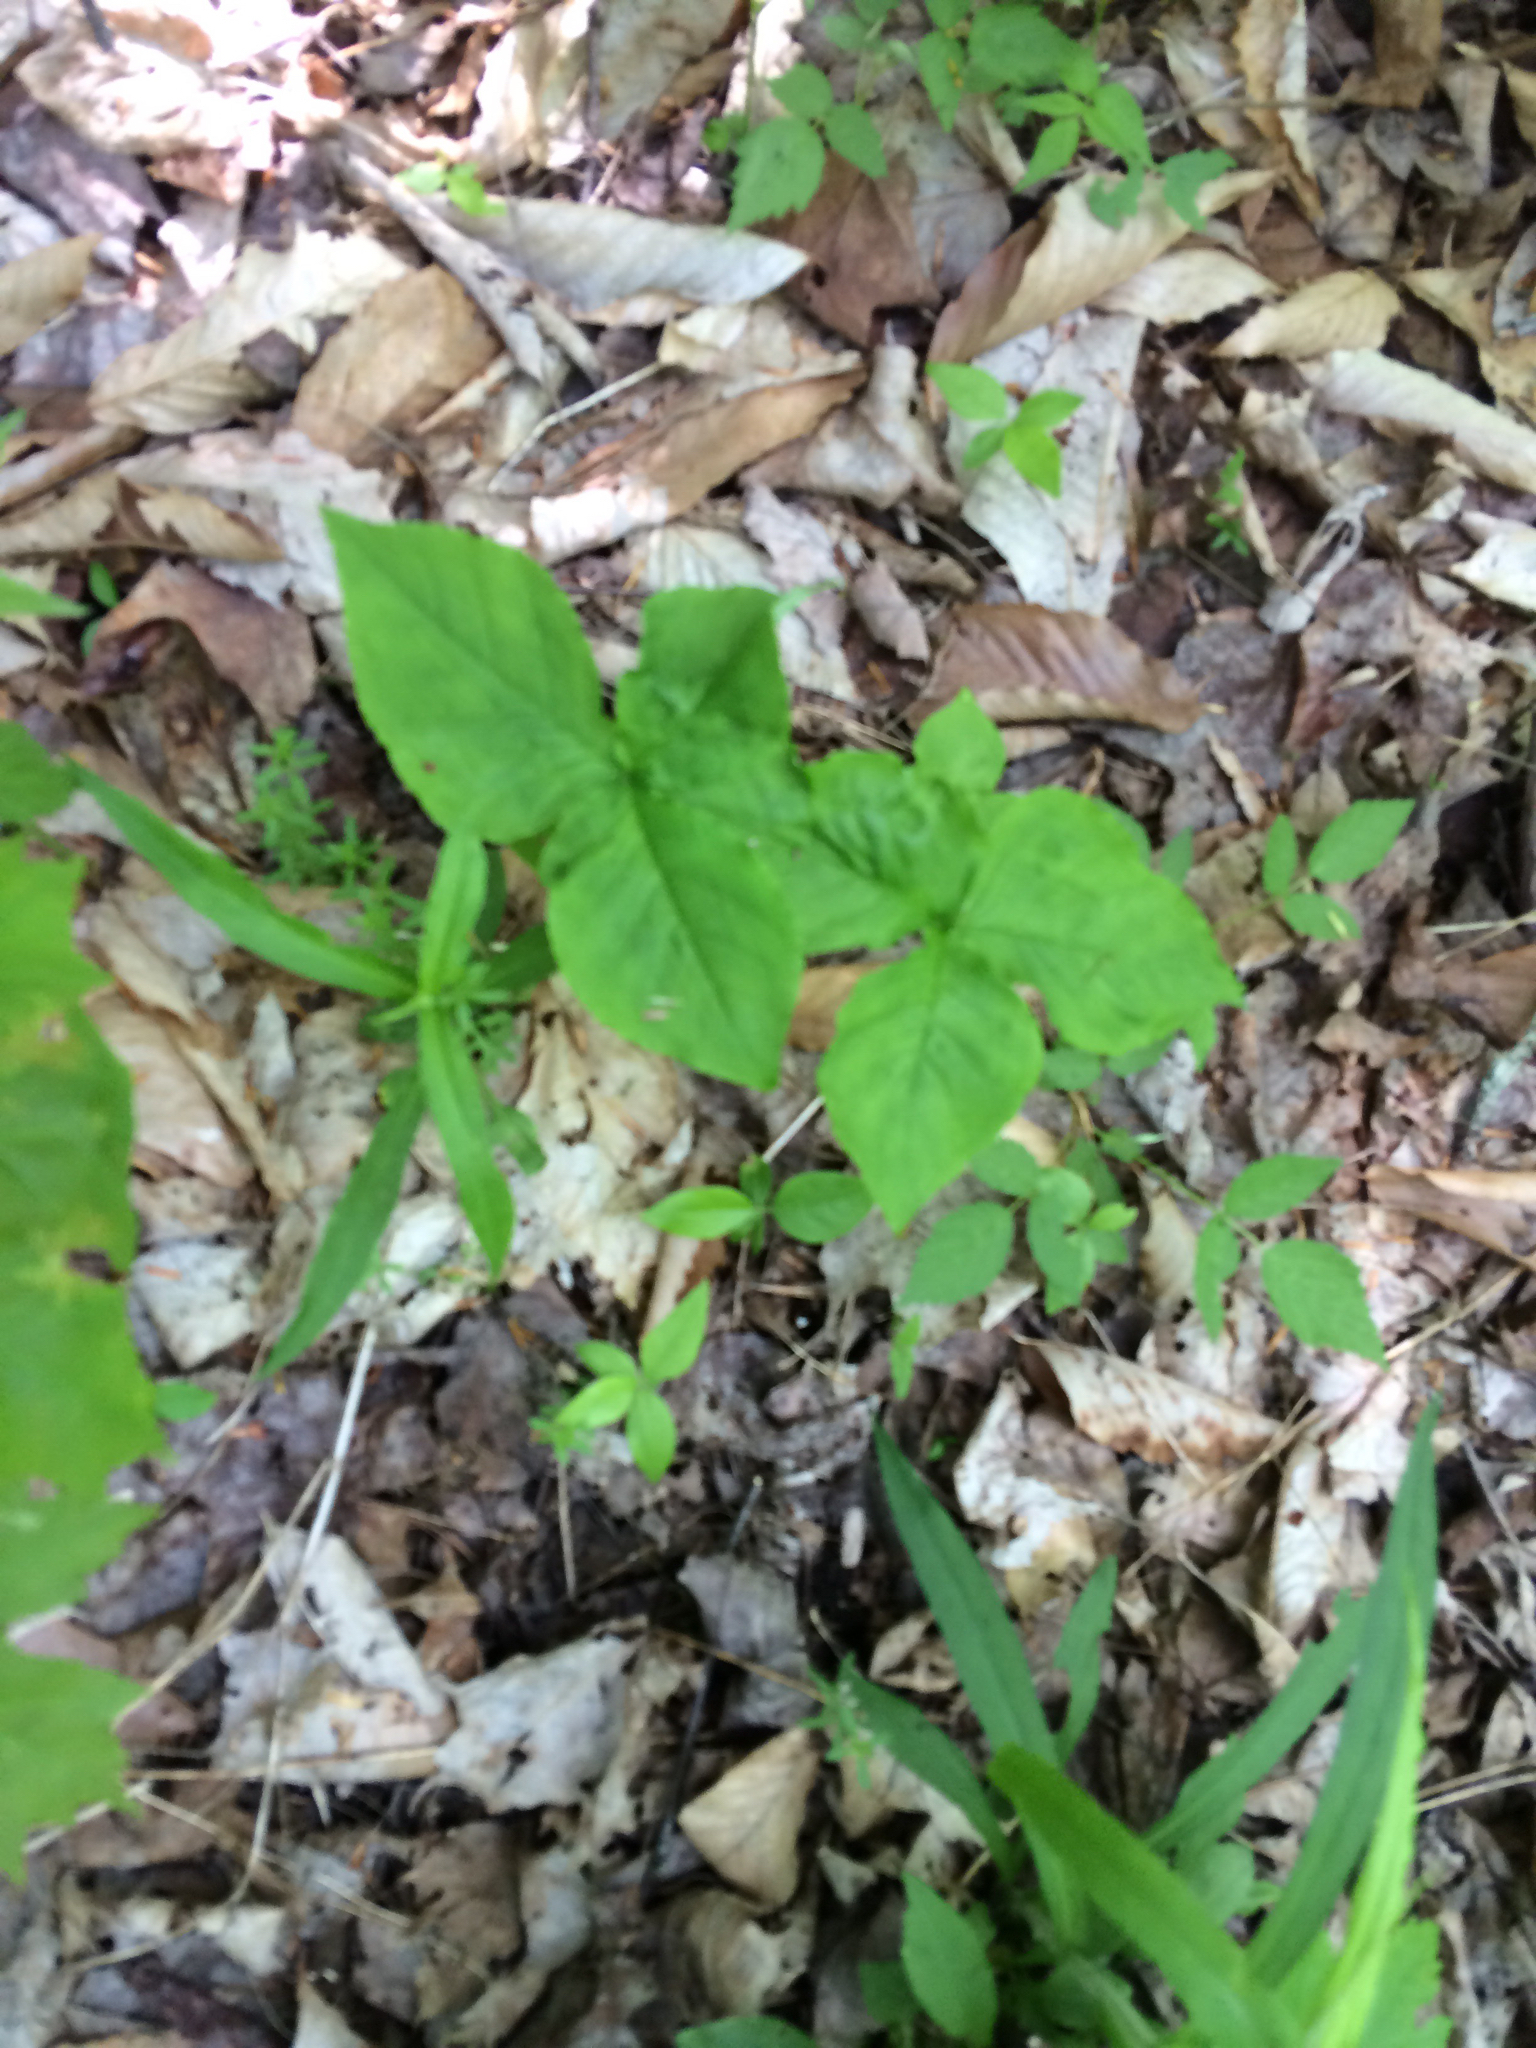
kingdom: Plantae
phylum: Tracheophyta
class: Liliopsida
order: Alismatales
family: Araceae
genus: Arisaema
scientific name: Arisaema triphyllum
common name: Jack-in-the-pulpit
